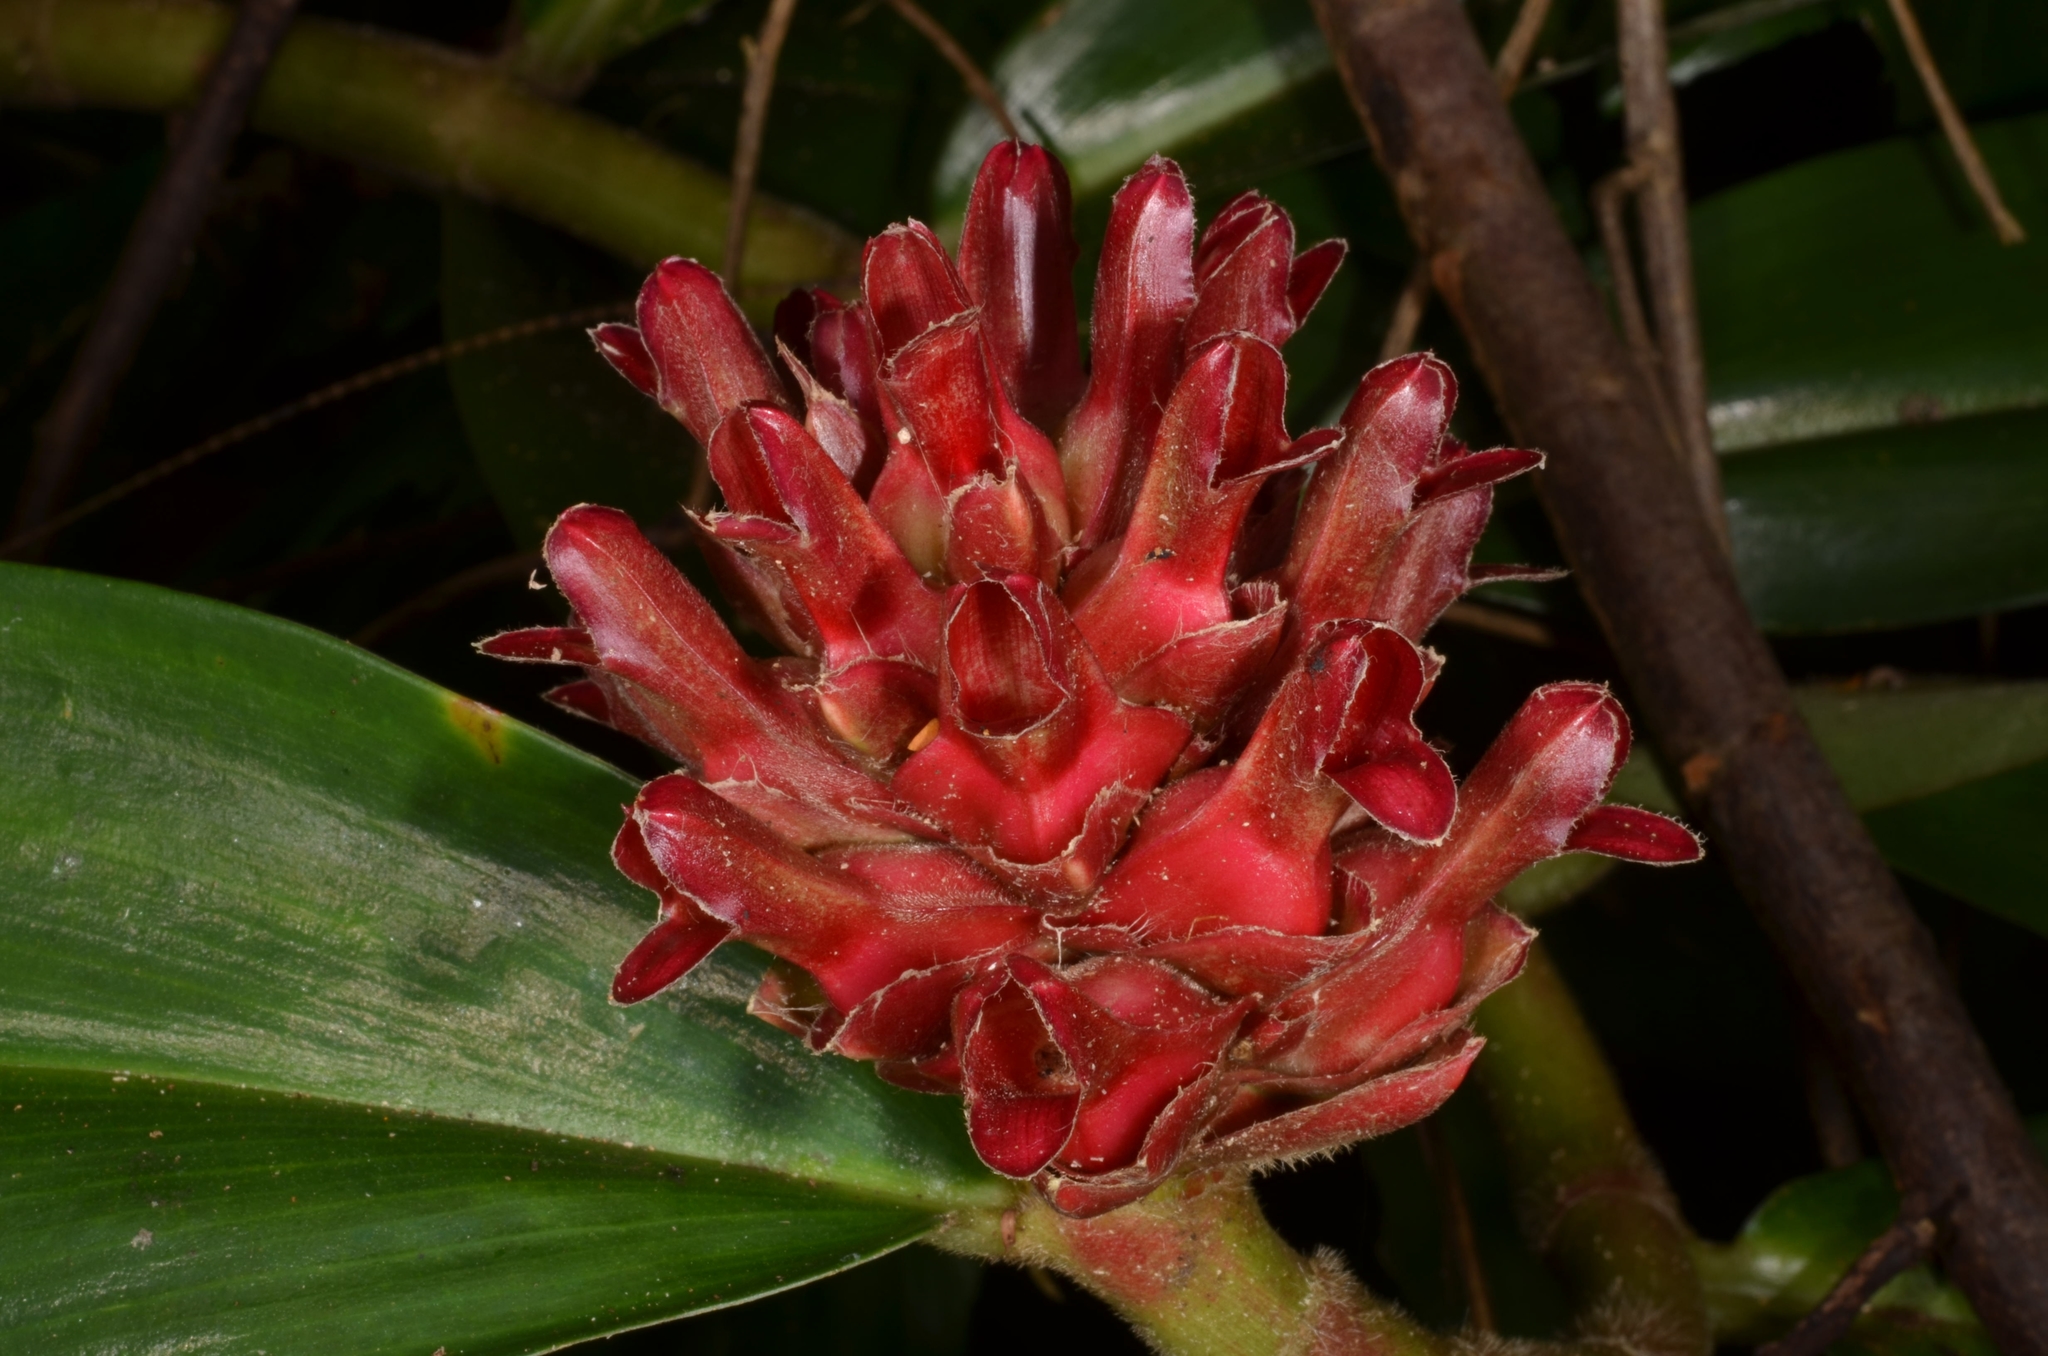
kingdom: Plantae
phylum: Tracheophyta
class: Liliopsida
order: Zingiberales
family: Costaceae
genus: Hellenia
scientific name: Hellenia speciosa
